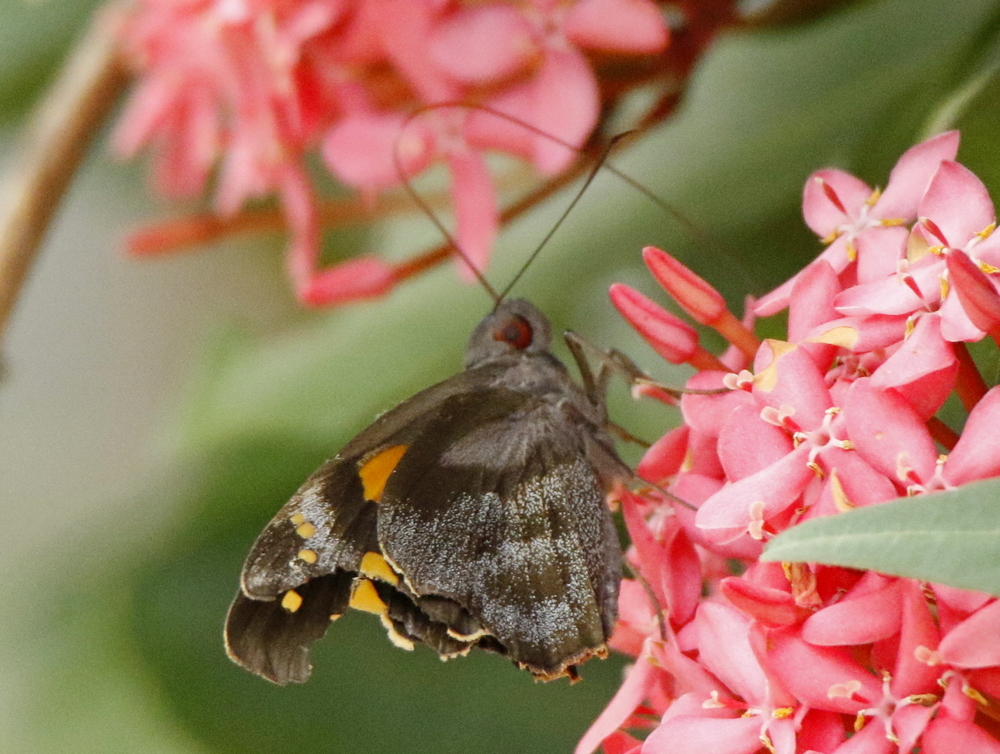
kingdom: Animalia
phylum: Arthropoda
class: Insecta
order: Lepidoptera
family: Hesperiidae
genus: Gangara
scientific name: Gangara thyrsis
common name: Giant redeye
